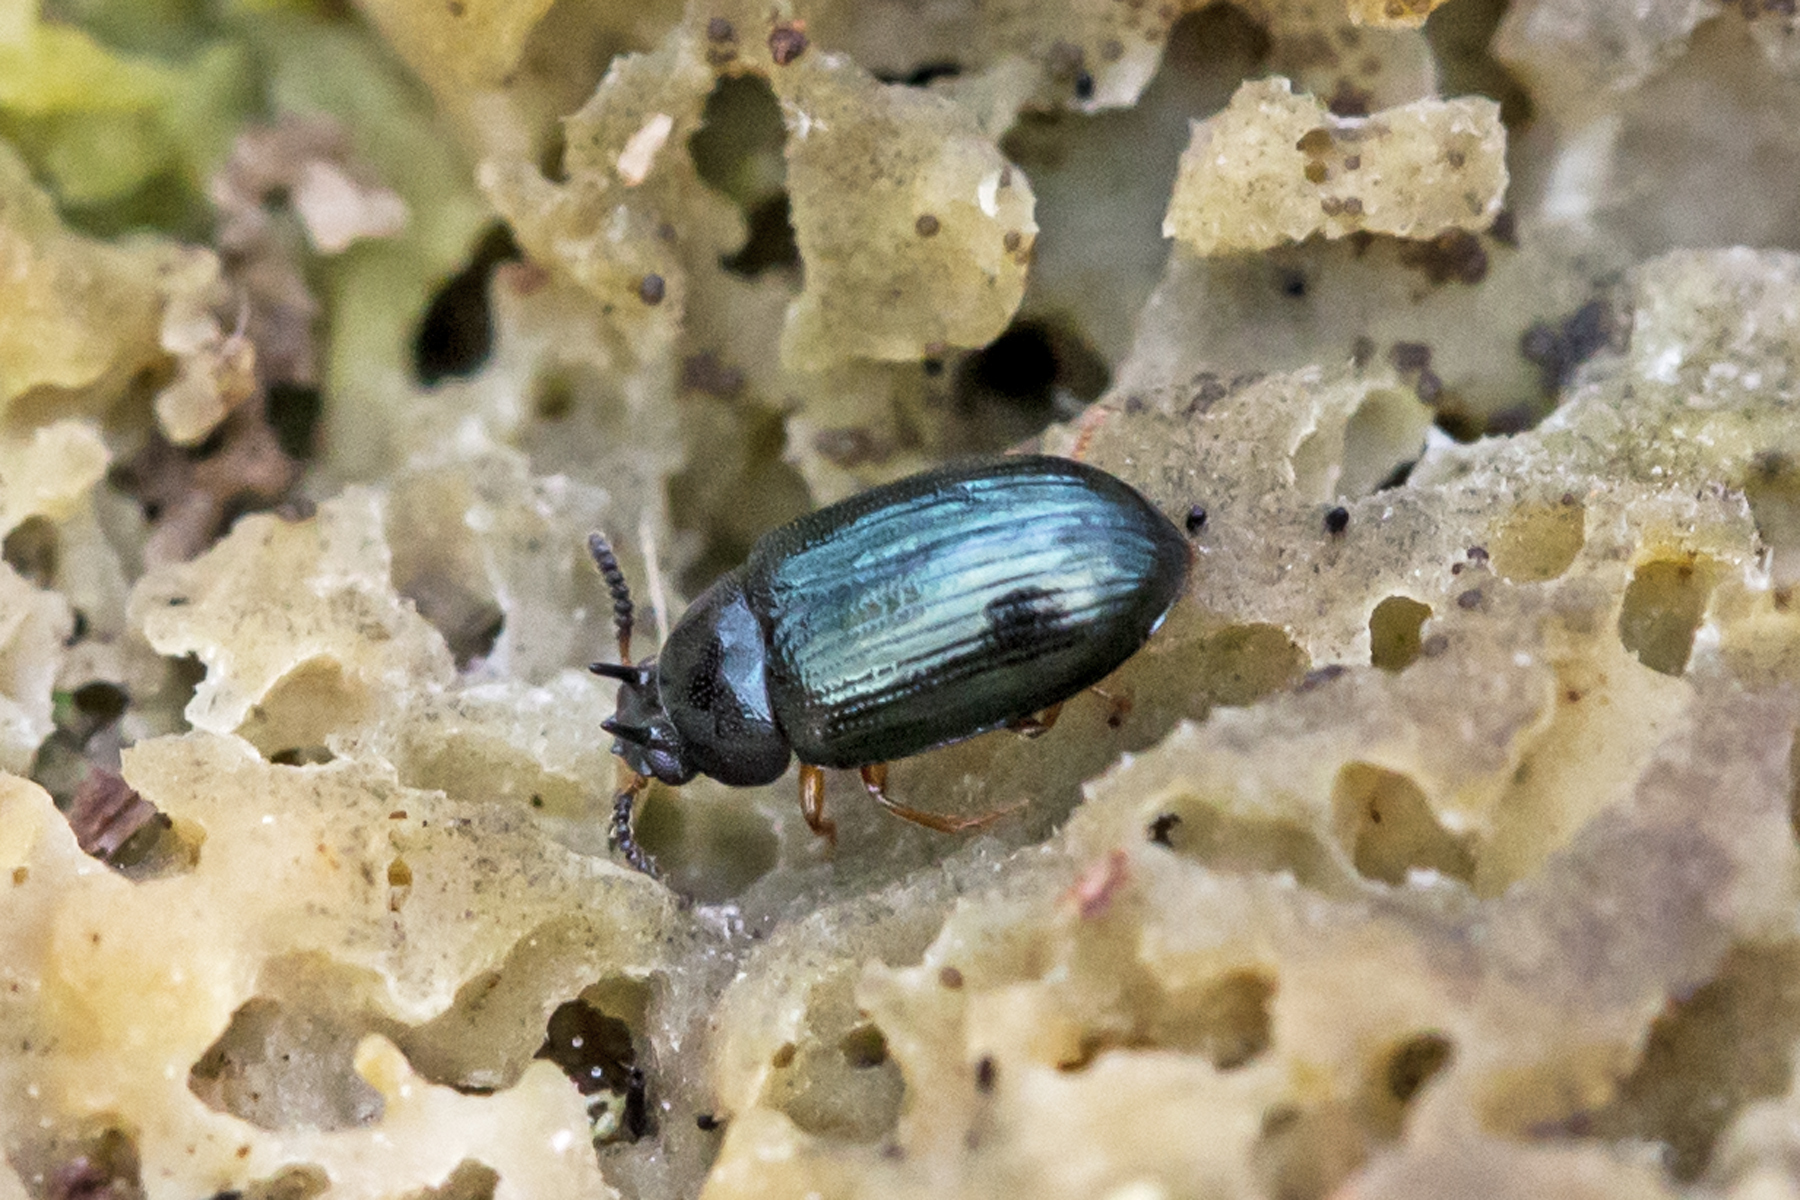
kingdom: Animalia
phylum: Arthropoda
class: Insecta
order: Coleoptera
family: Tenebrionidae
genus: Neomida
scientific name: Neomida bicornis
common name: Two-horned darkling beetle
